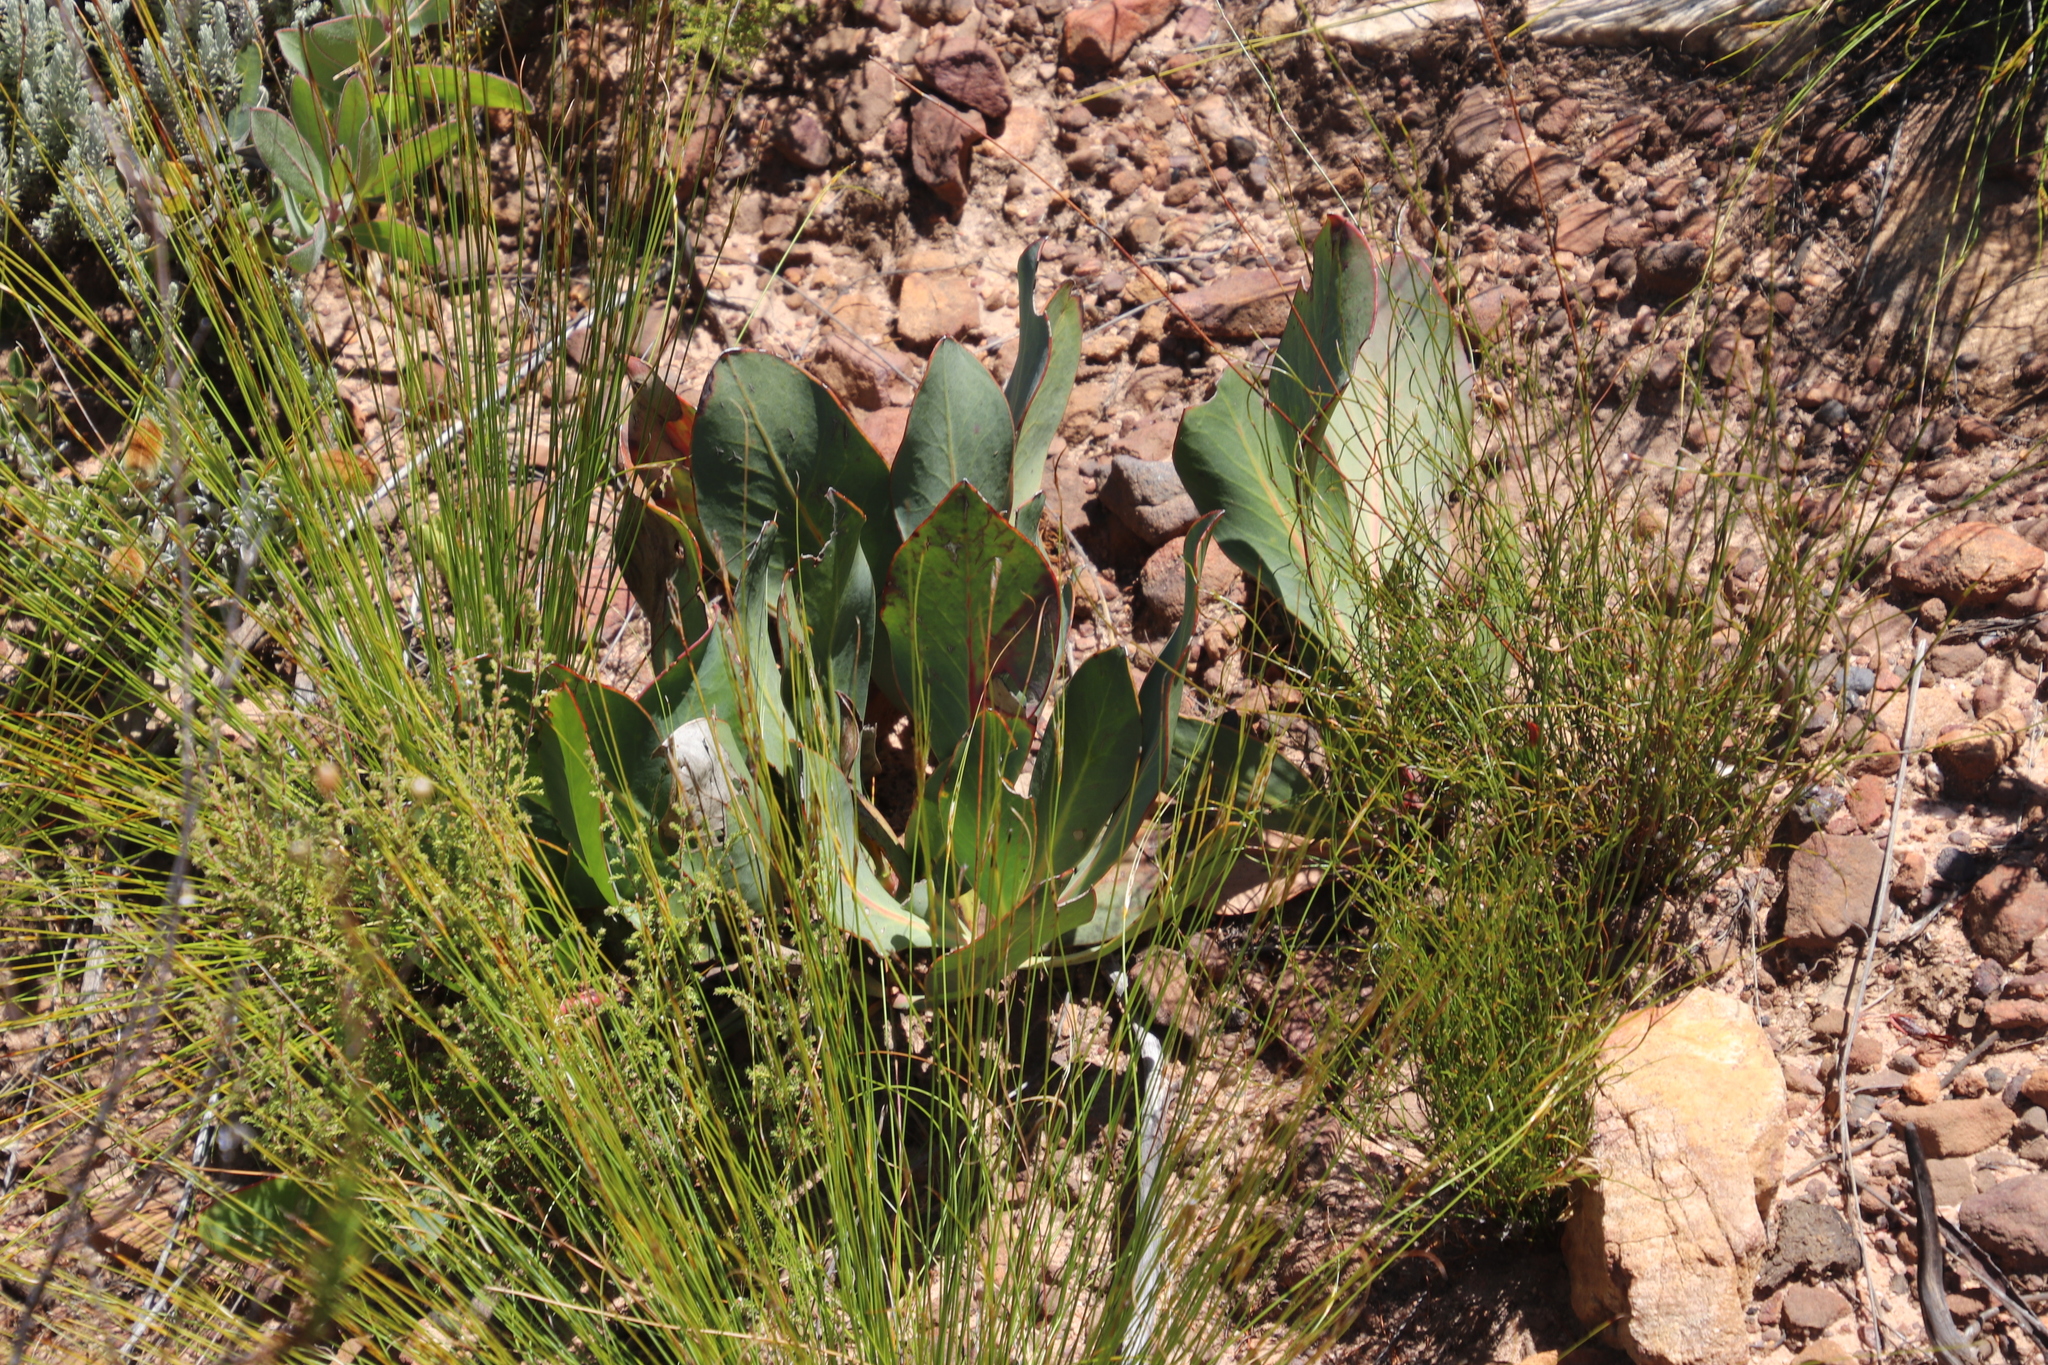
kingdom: Plantae
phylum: Tracheophyta
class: Magnoliopsida
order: Proteales
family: Proteaceae
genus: Protea
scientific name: Protea acaulos
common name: Common ground sugarbush
